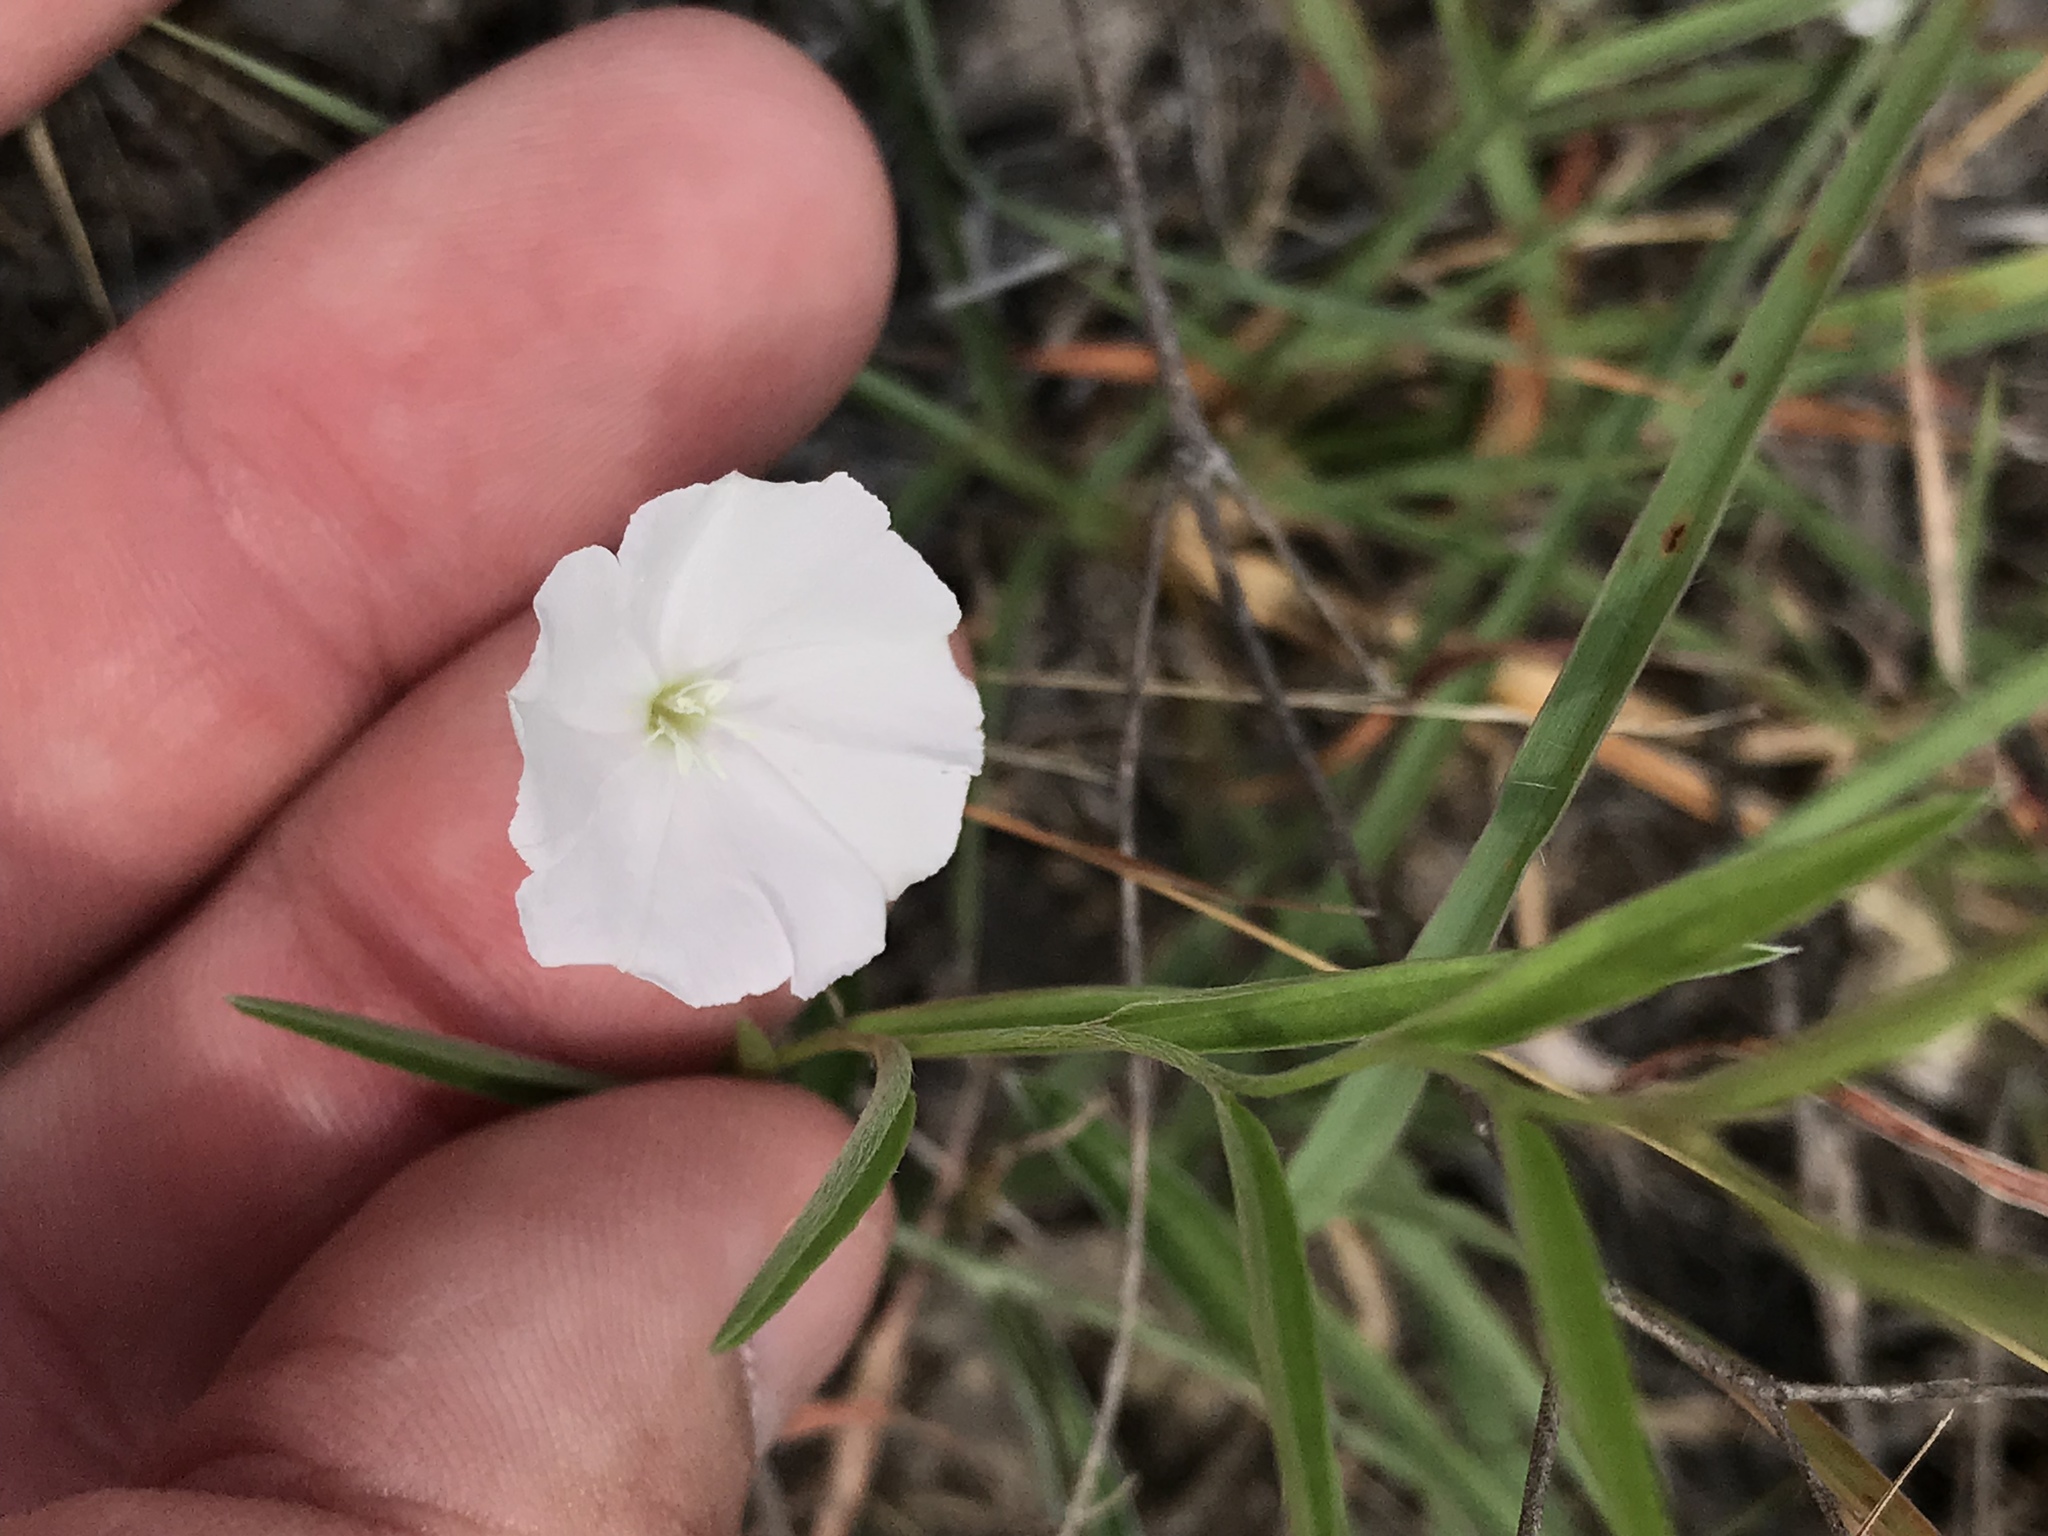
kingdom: Plantae
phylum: Tracheophyta
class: Magnoliopsida
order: Solanales
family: Convolvulaceae
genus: Evolvulus
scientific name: Evolvulus sericeus
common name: Blue dots
